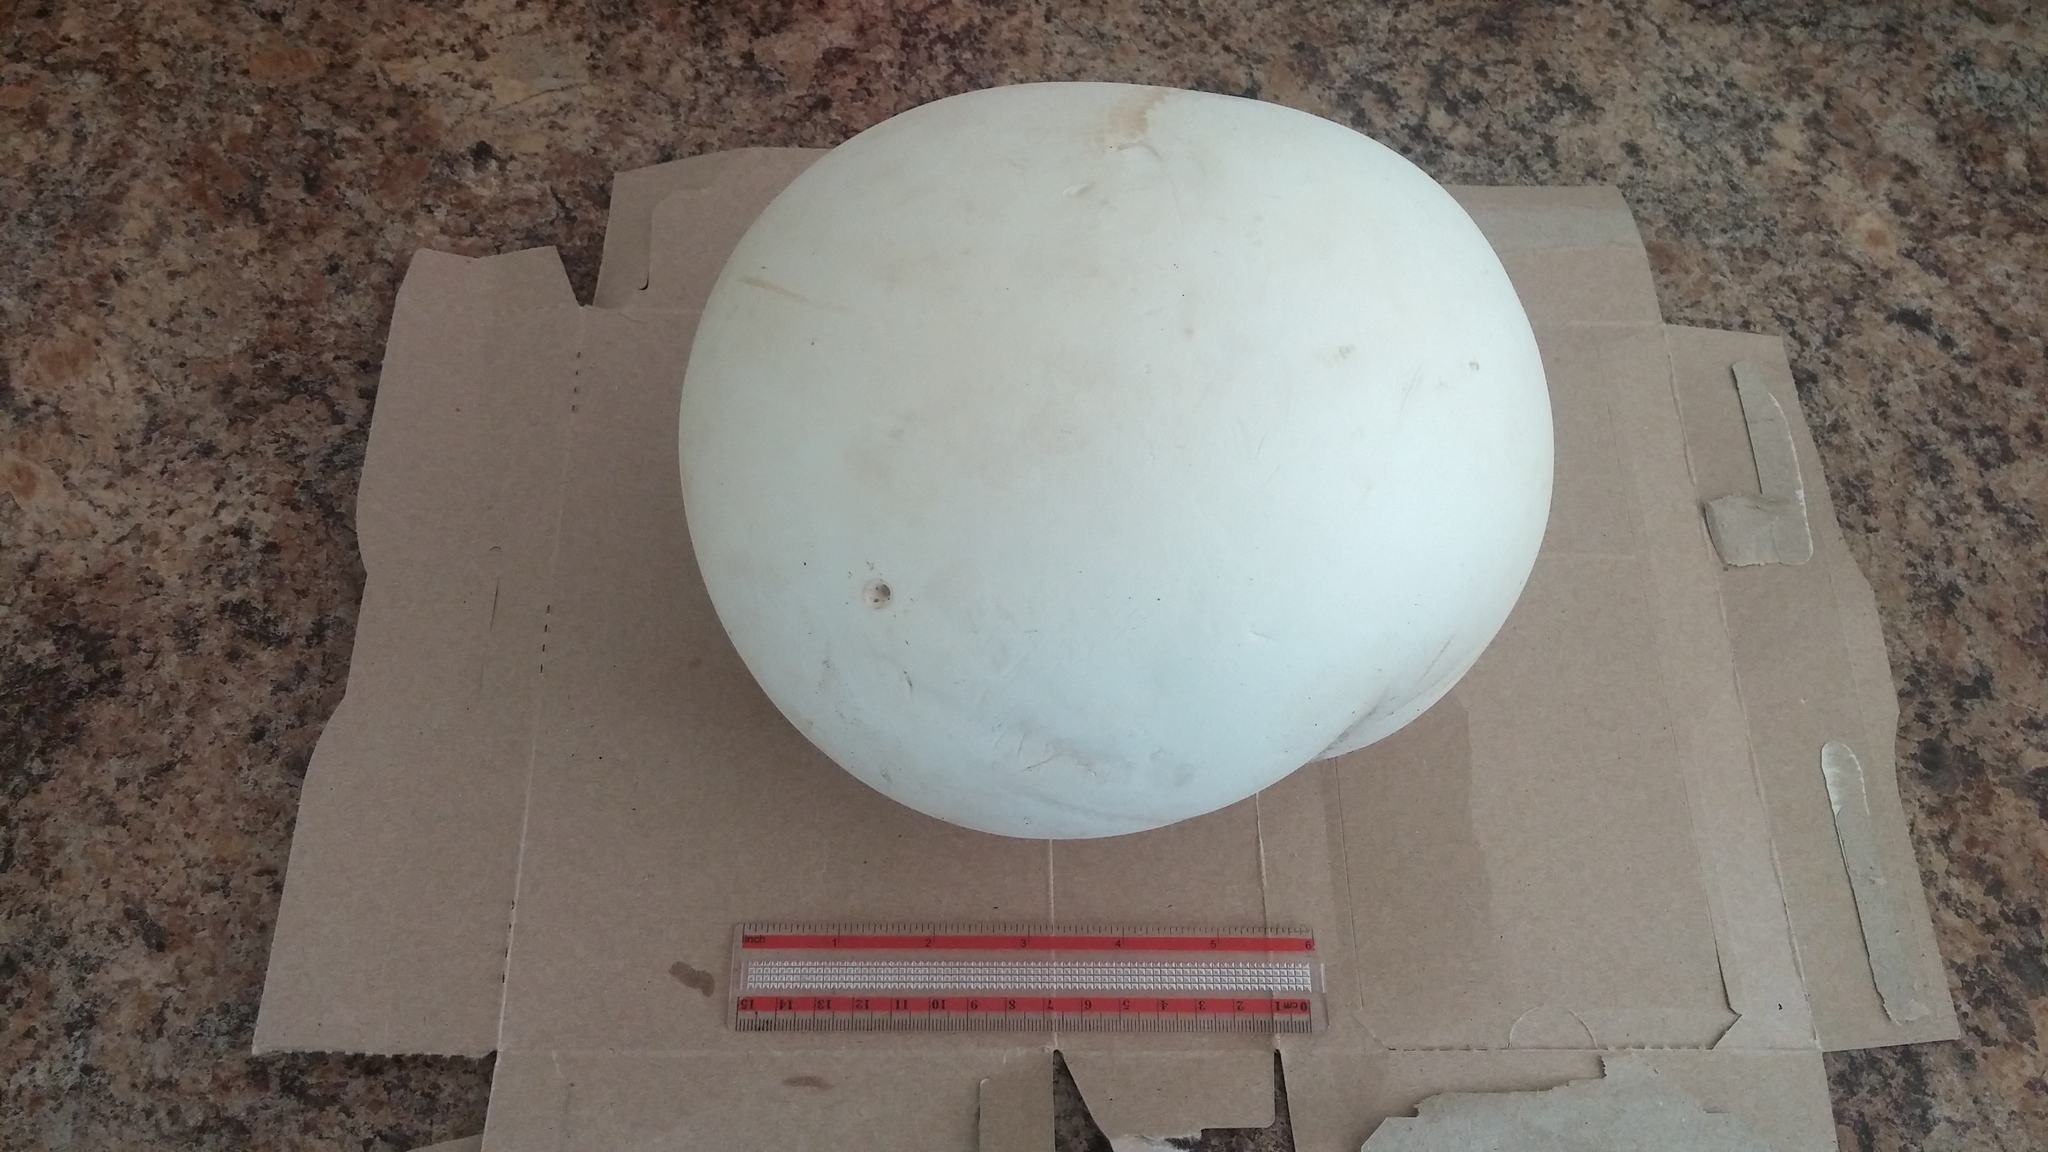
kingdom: Fungi
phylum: Basidiomycota
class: Agaricomycetes
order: Agaricales
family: Lycoperdaceae
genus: Calvatia
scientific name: Calvatia gigantea
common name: Giant puffball
